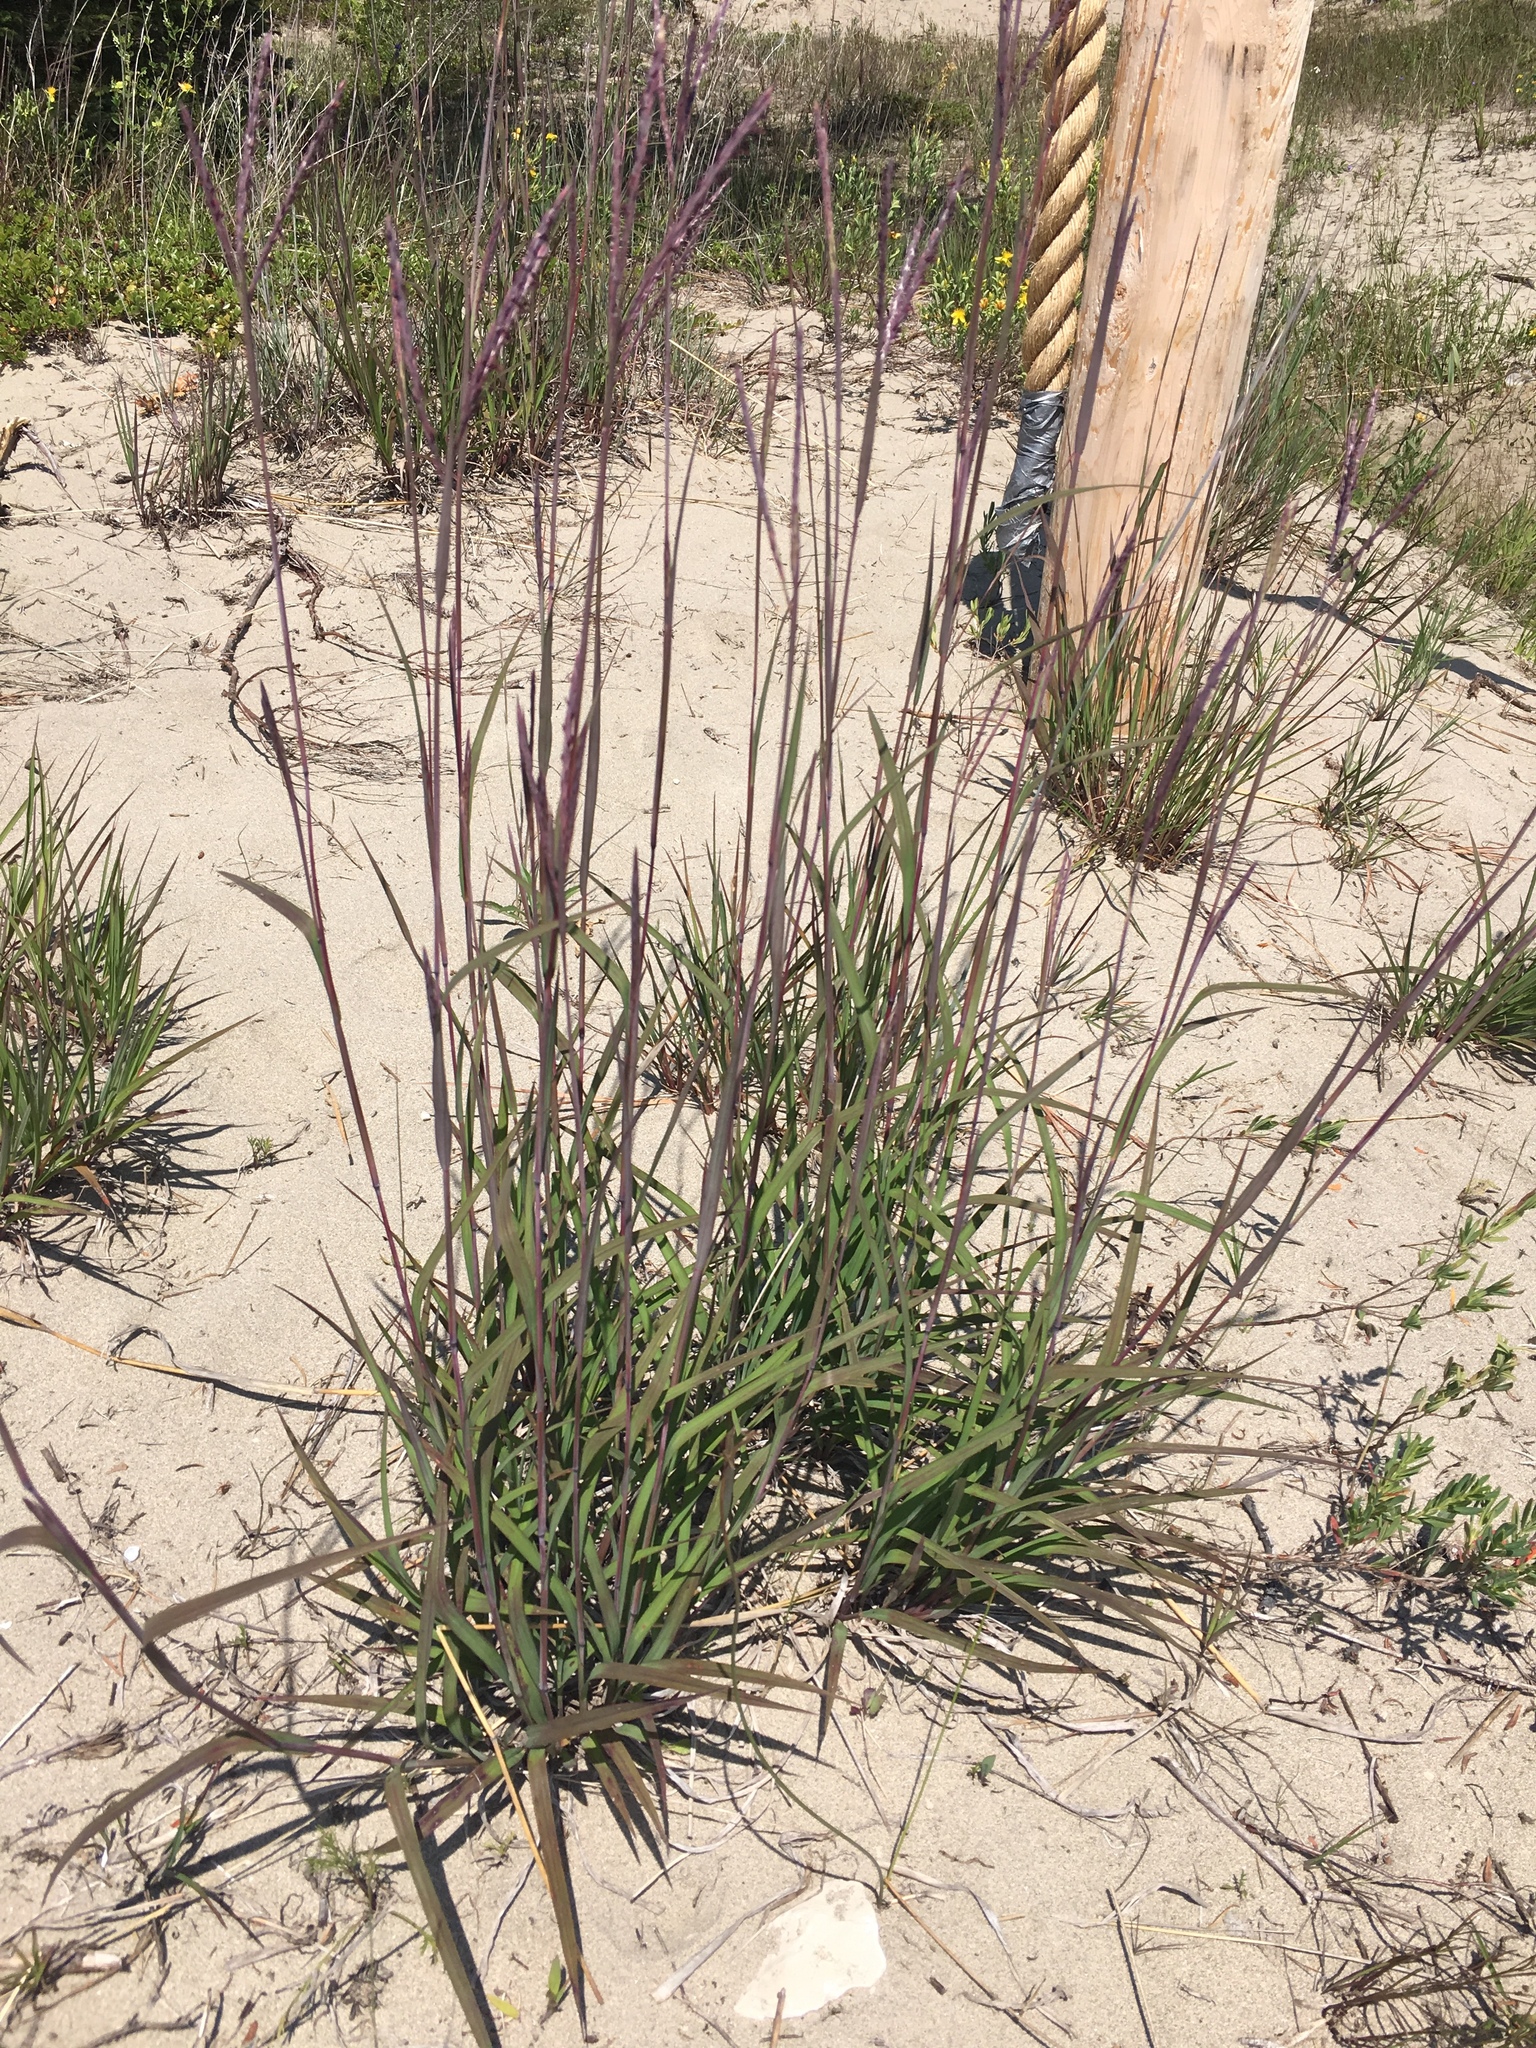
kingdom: Plantae
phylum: Tracheophyta
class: Liliopsida
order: Poales
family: Poaceae
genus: Andropogon
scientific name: Andropogon gerardi
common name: Big bluestem
